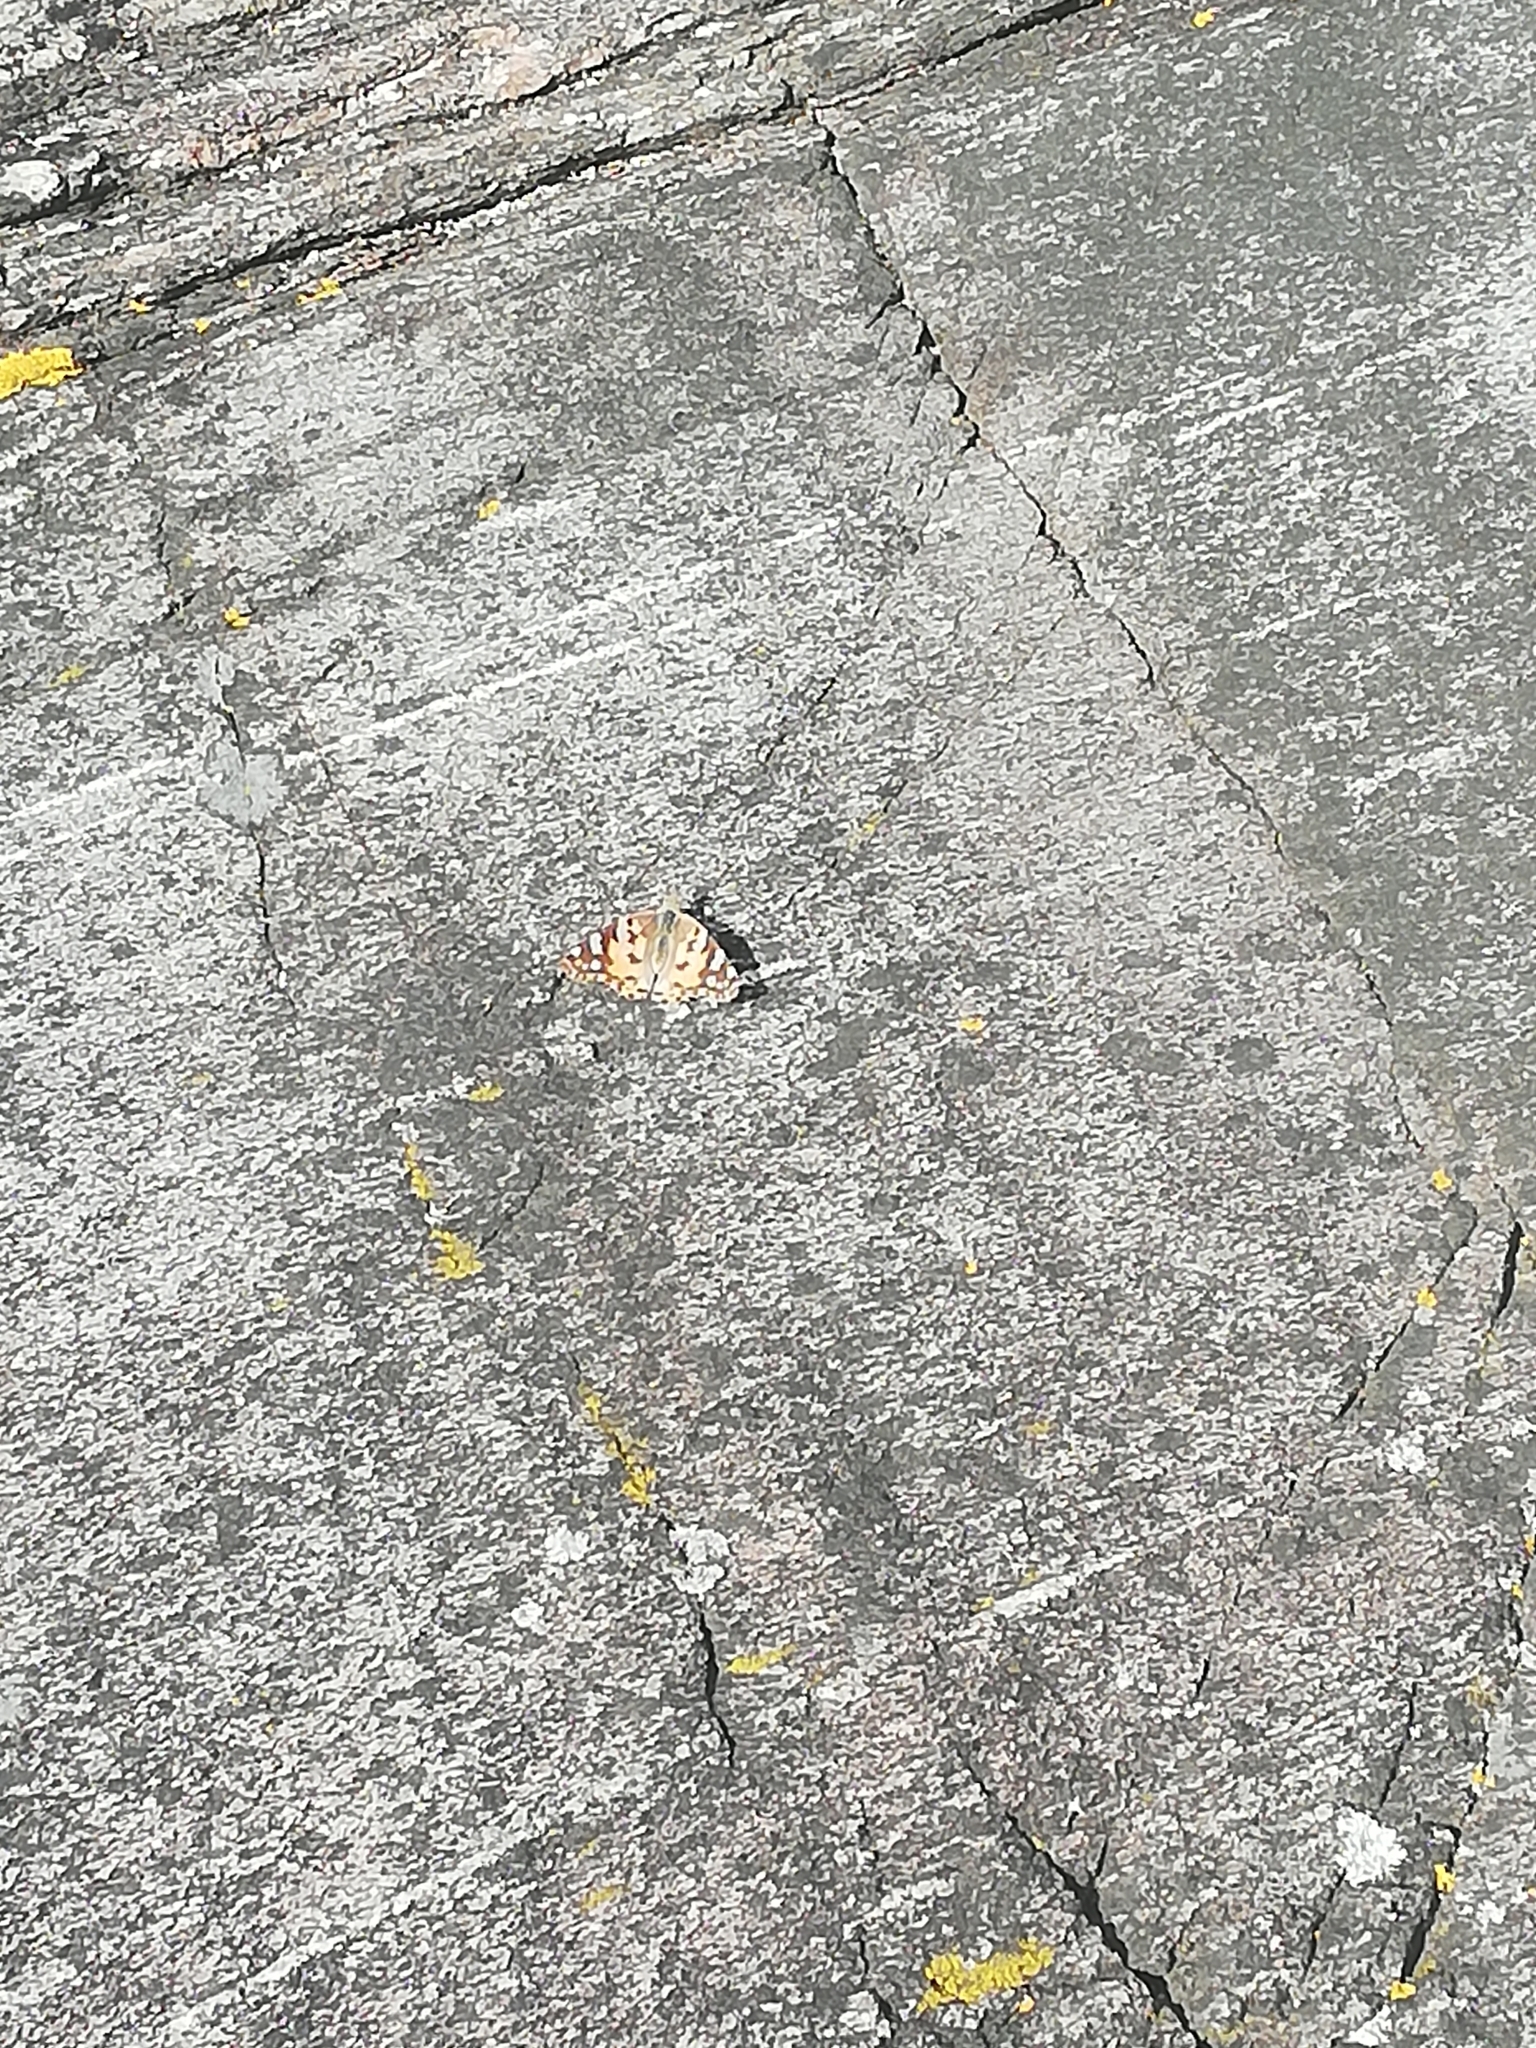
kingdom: Animalia
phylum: Arthropoda
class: Insecta
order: Lepidoptera
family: Nymphalidae
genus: Vanessa
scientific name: Vanessa cardui
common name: Painted lady
